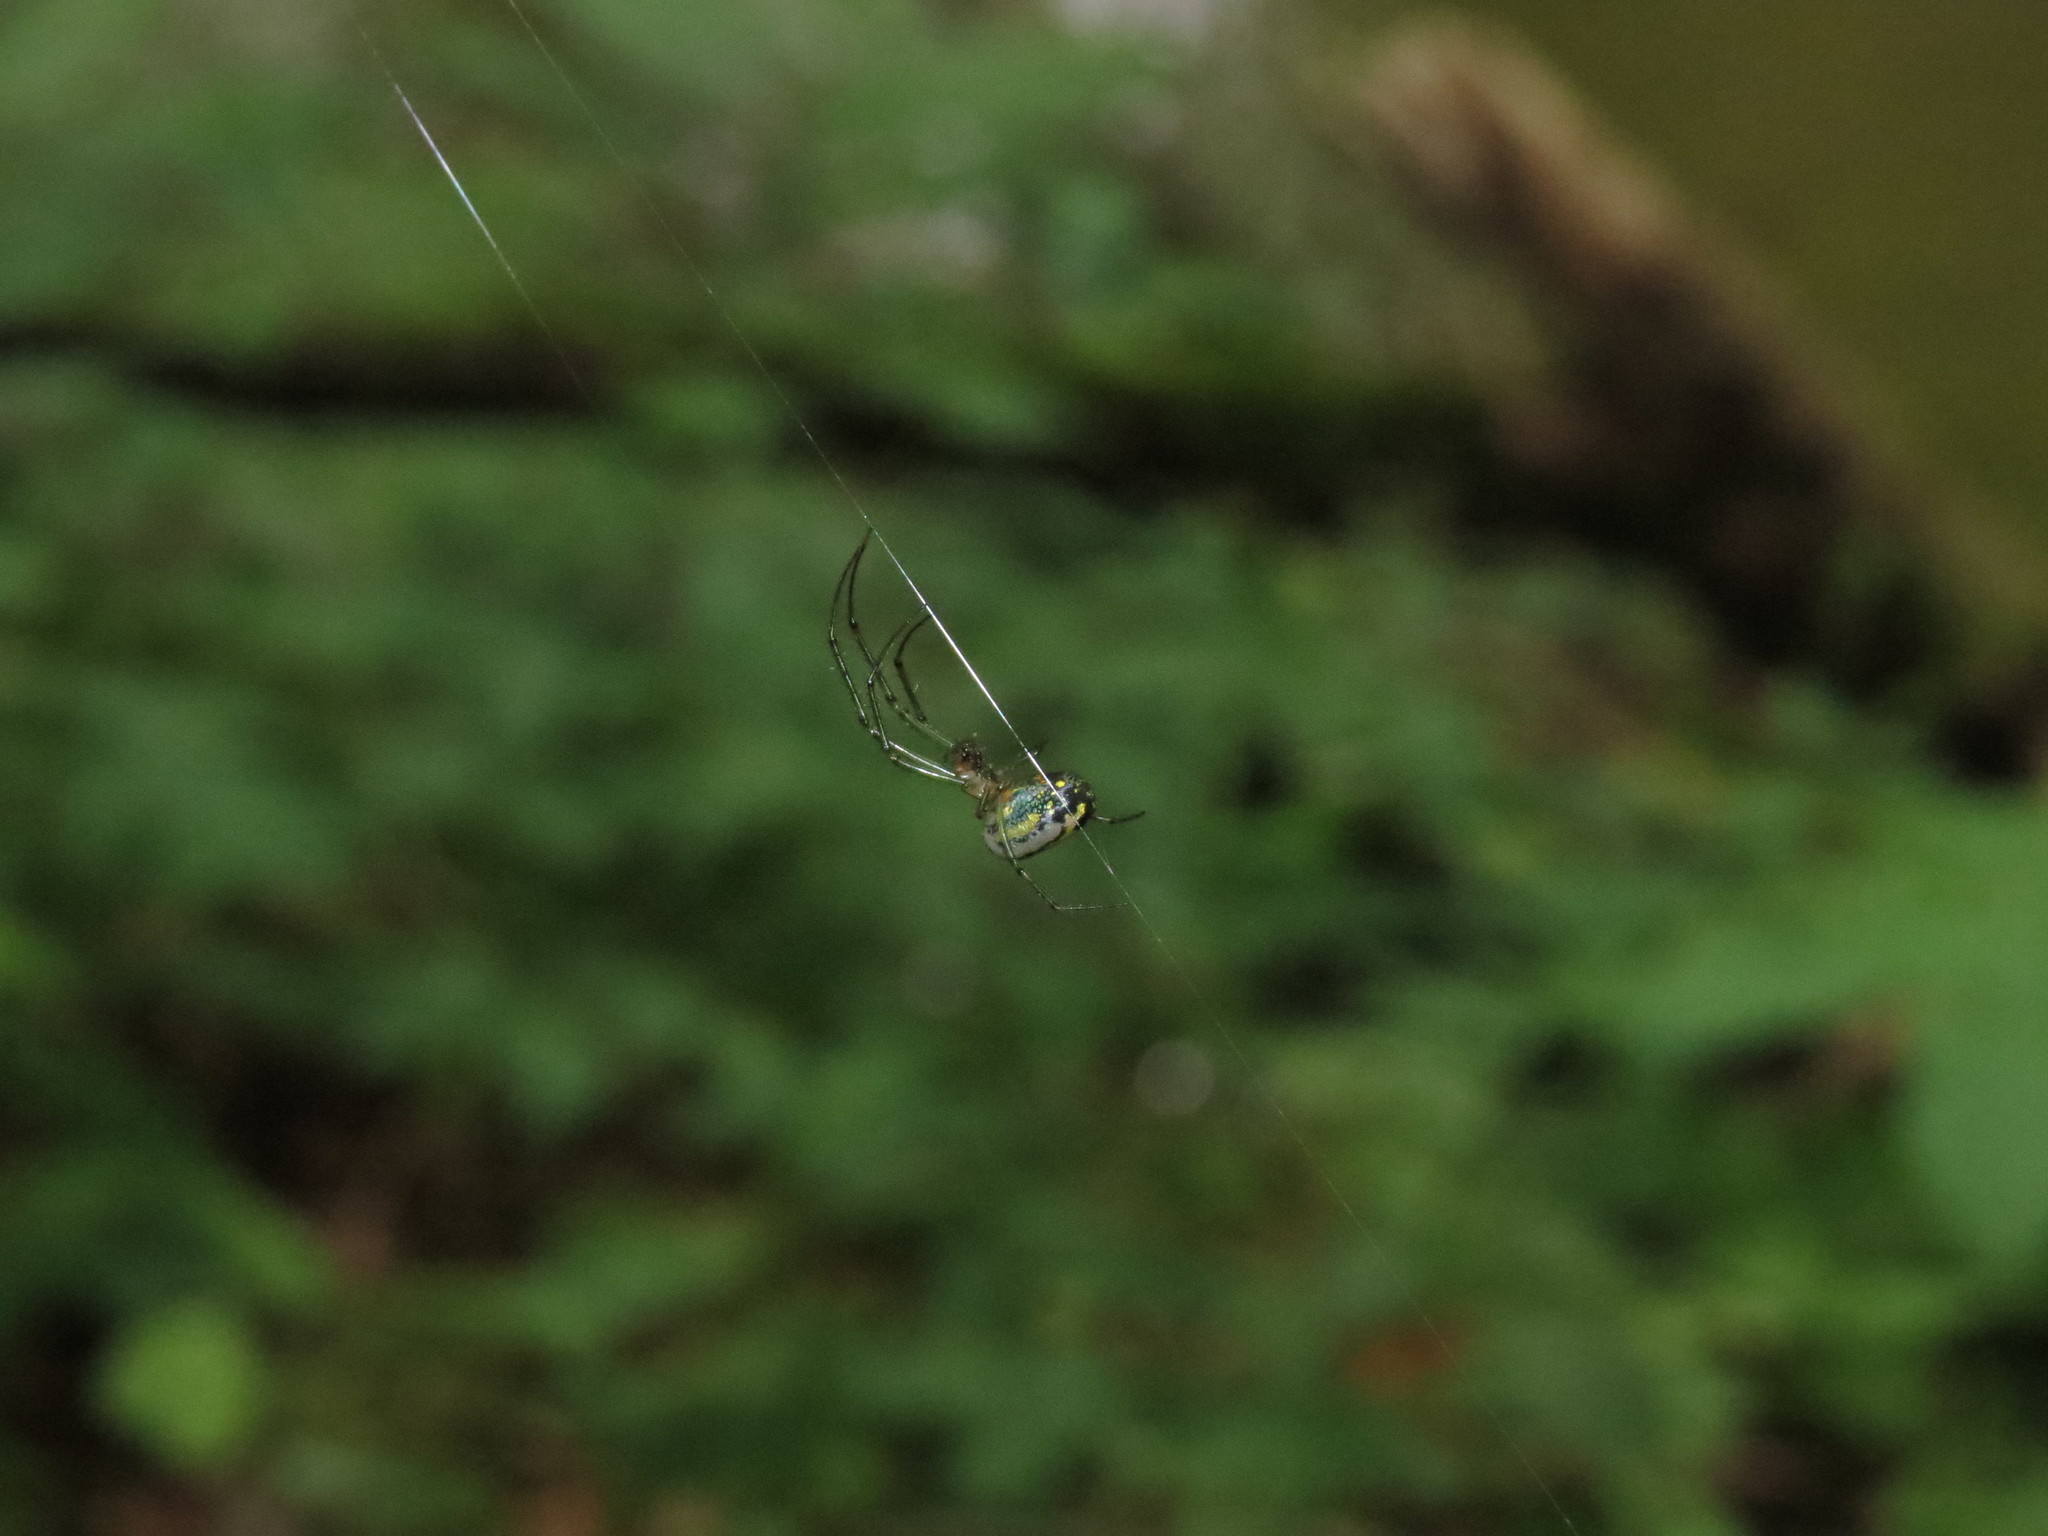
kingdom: Animalia
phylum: Arthropoda
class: Arachnida
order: Araneae
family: Tetragnathidae
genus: Leucauge
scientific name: Leucauge venusta
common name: Longjawed orb weavers
